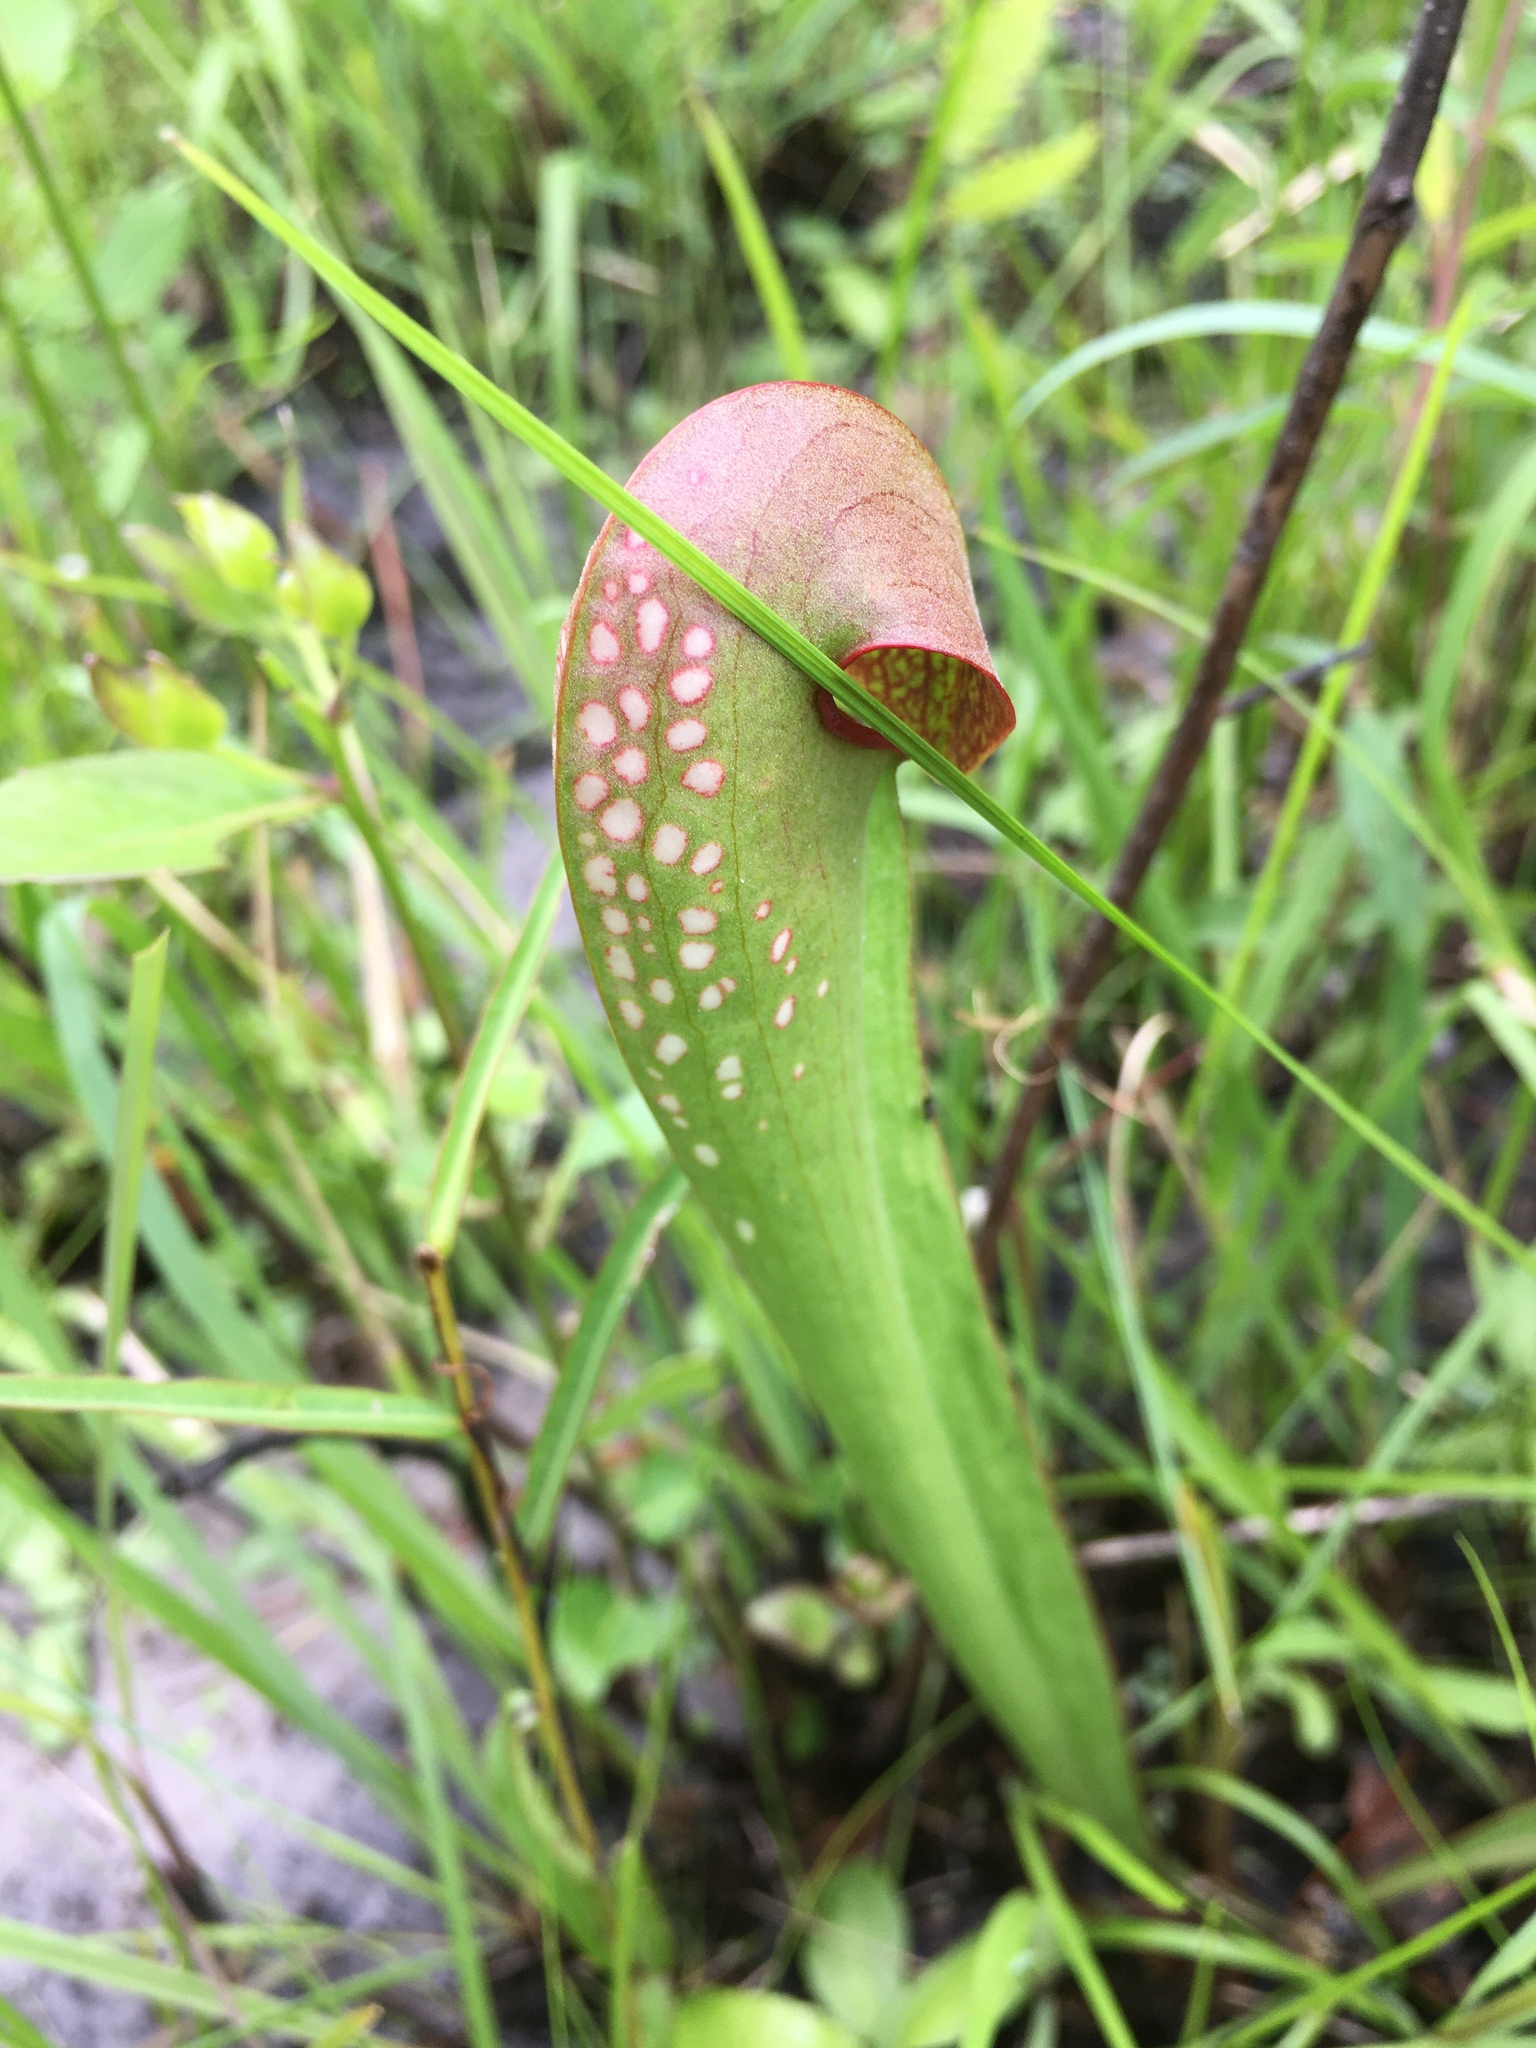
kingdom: Plantae
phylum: Tracheophyta
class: Magnoliopsida
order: Ericales
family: Sarraceniaceae
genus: Sarracenia
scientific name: Sarracenia minor
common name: Rainhat-trumpet
